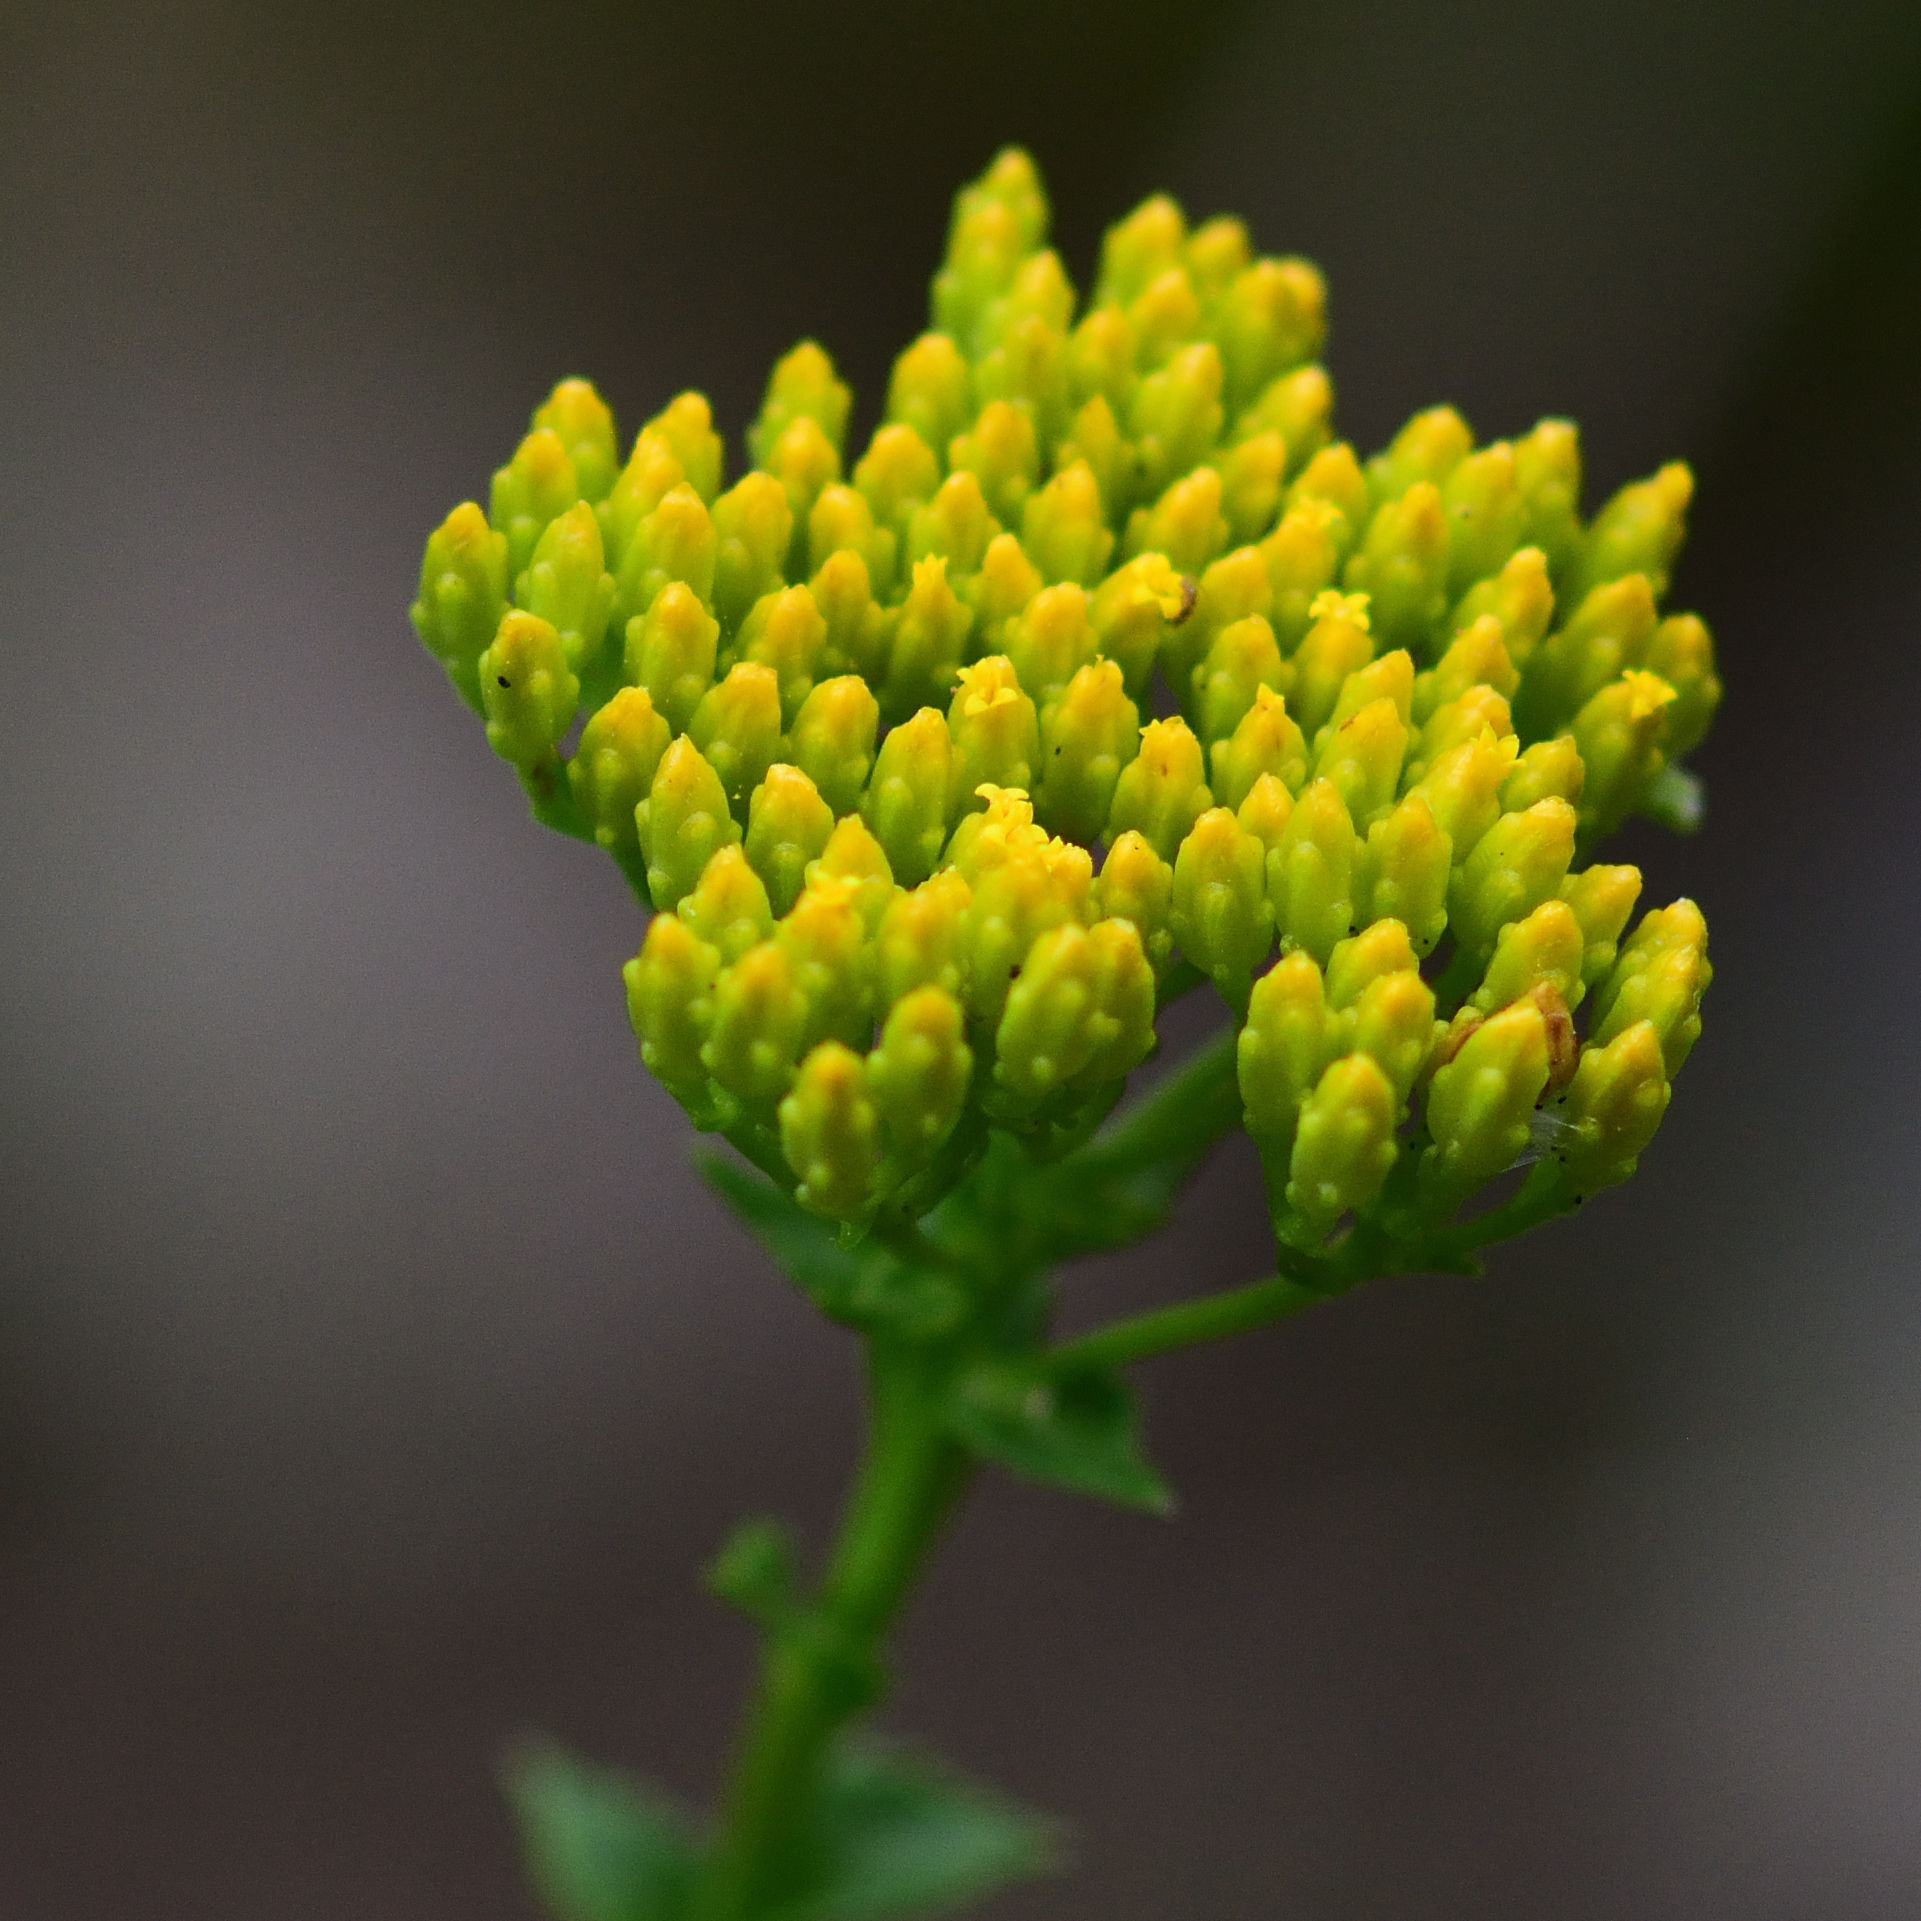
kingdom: Plantae
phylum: Tracheophyta
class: Magnoliopsida
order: Asterales
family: Asteraceae
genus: Athanasia
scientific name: Athanasia dentata
